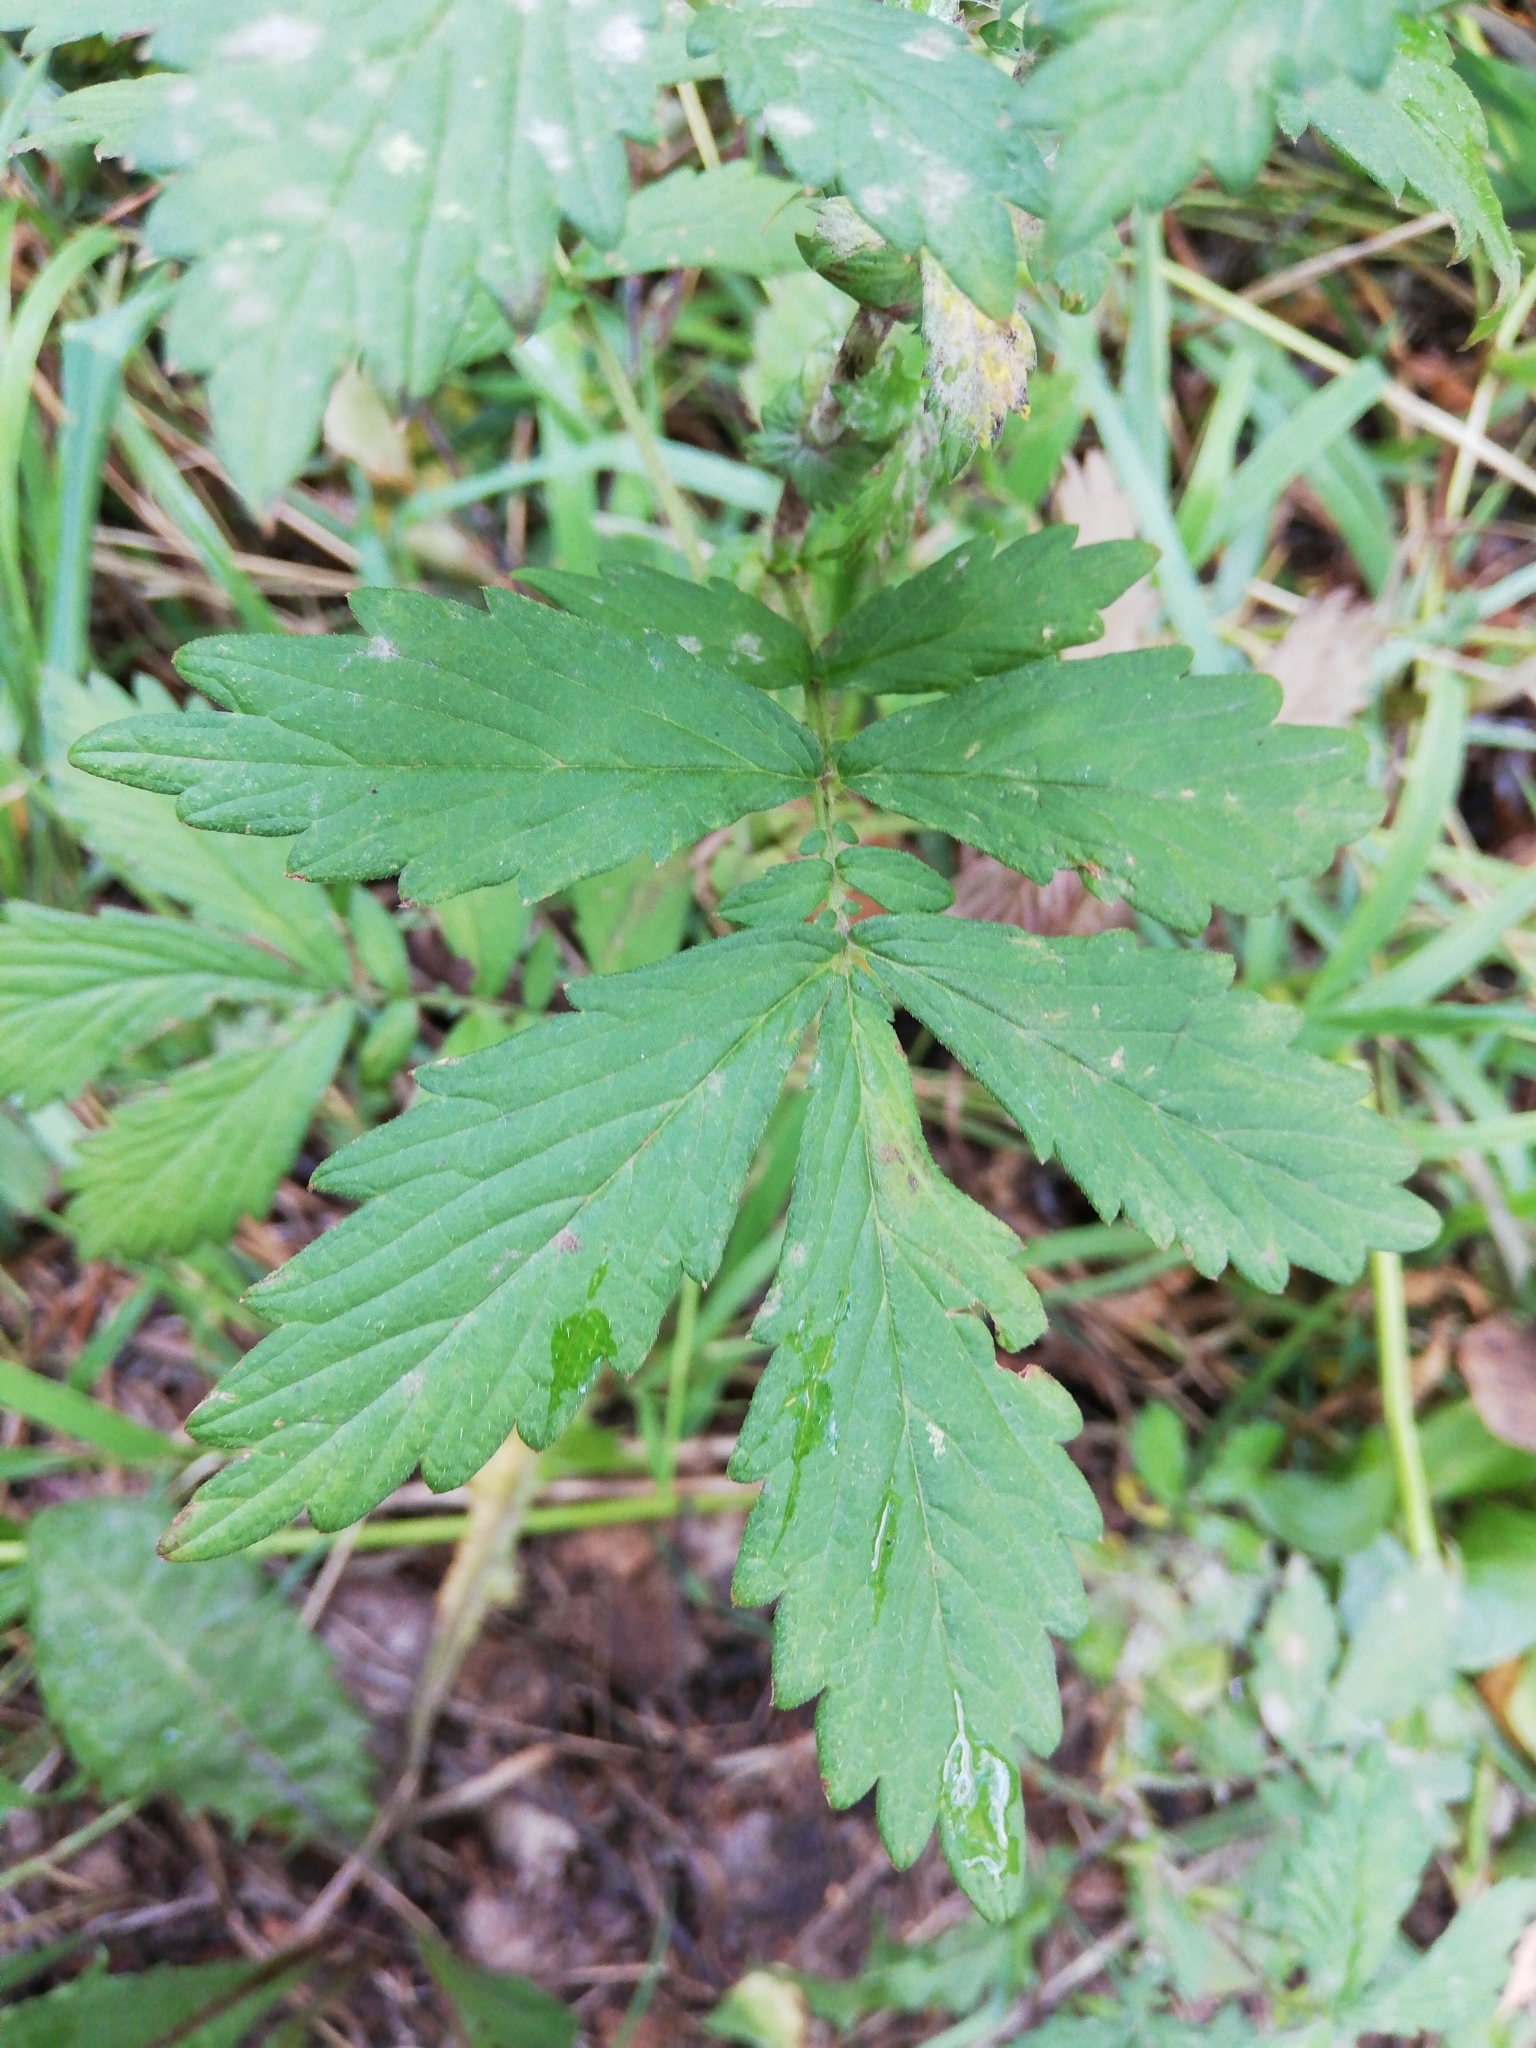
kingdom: Plantae
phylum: Tracheophyta
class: Magnoliopsida
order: Rosales
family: Rosaceae
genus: Agrimonia
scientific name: Agrimonia pilosa
